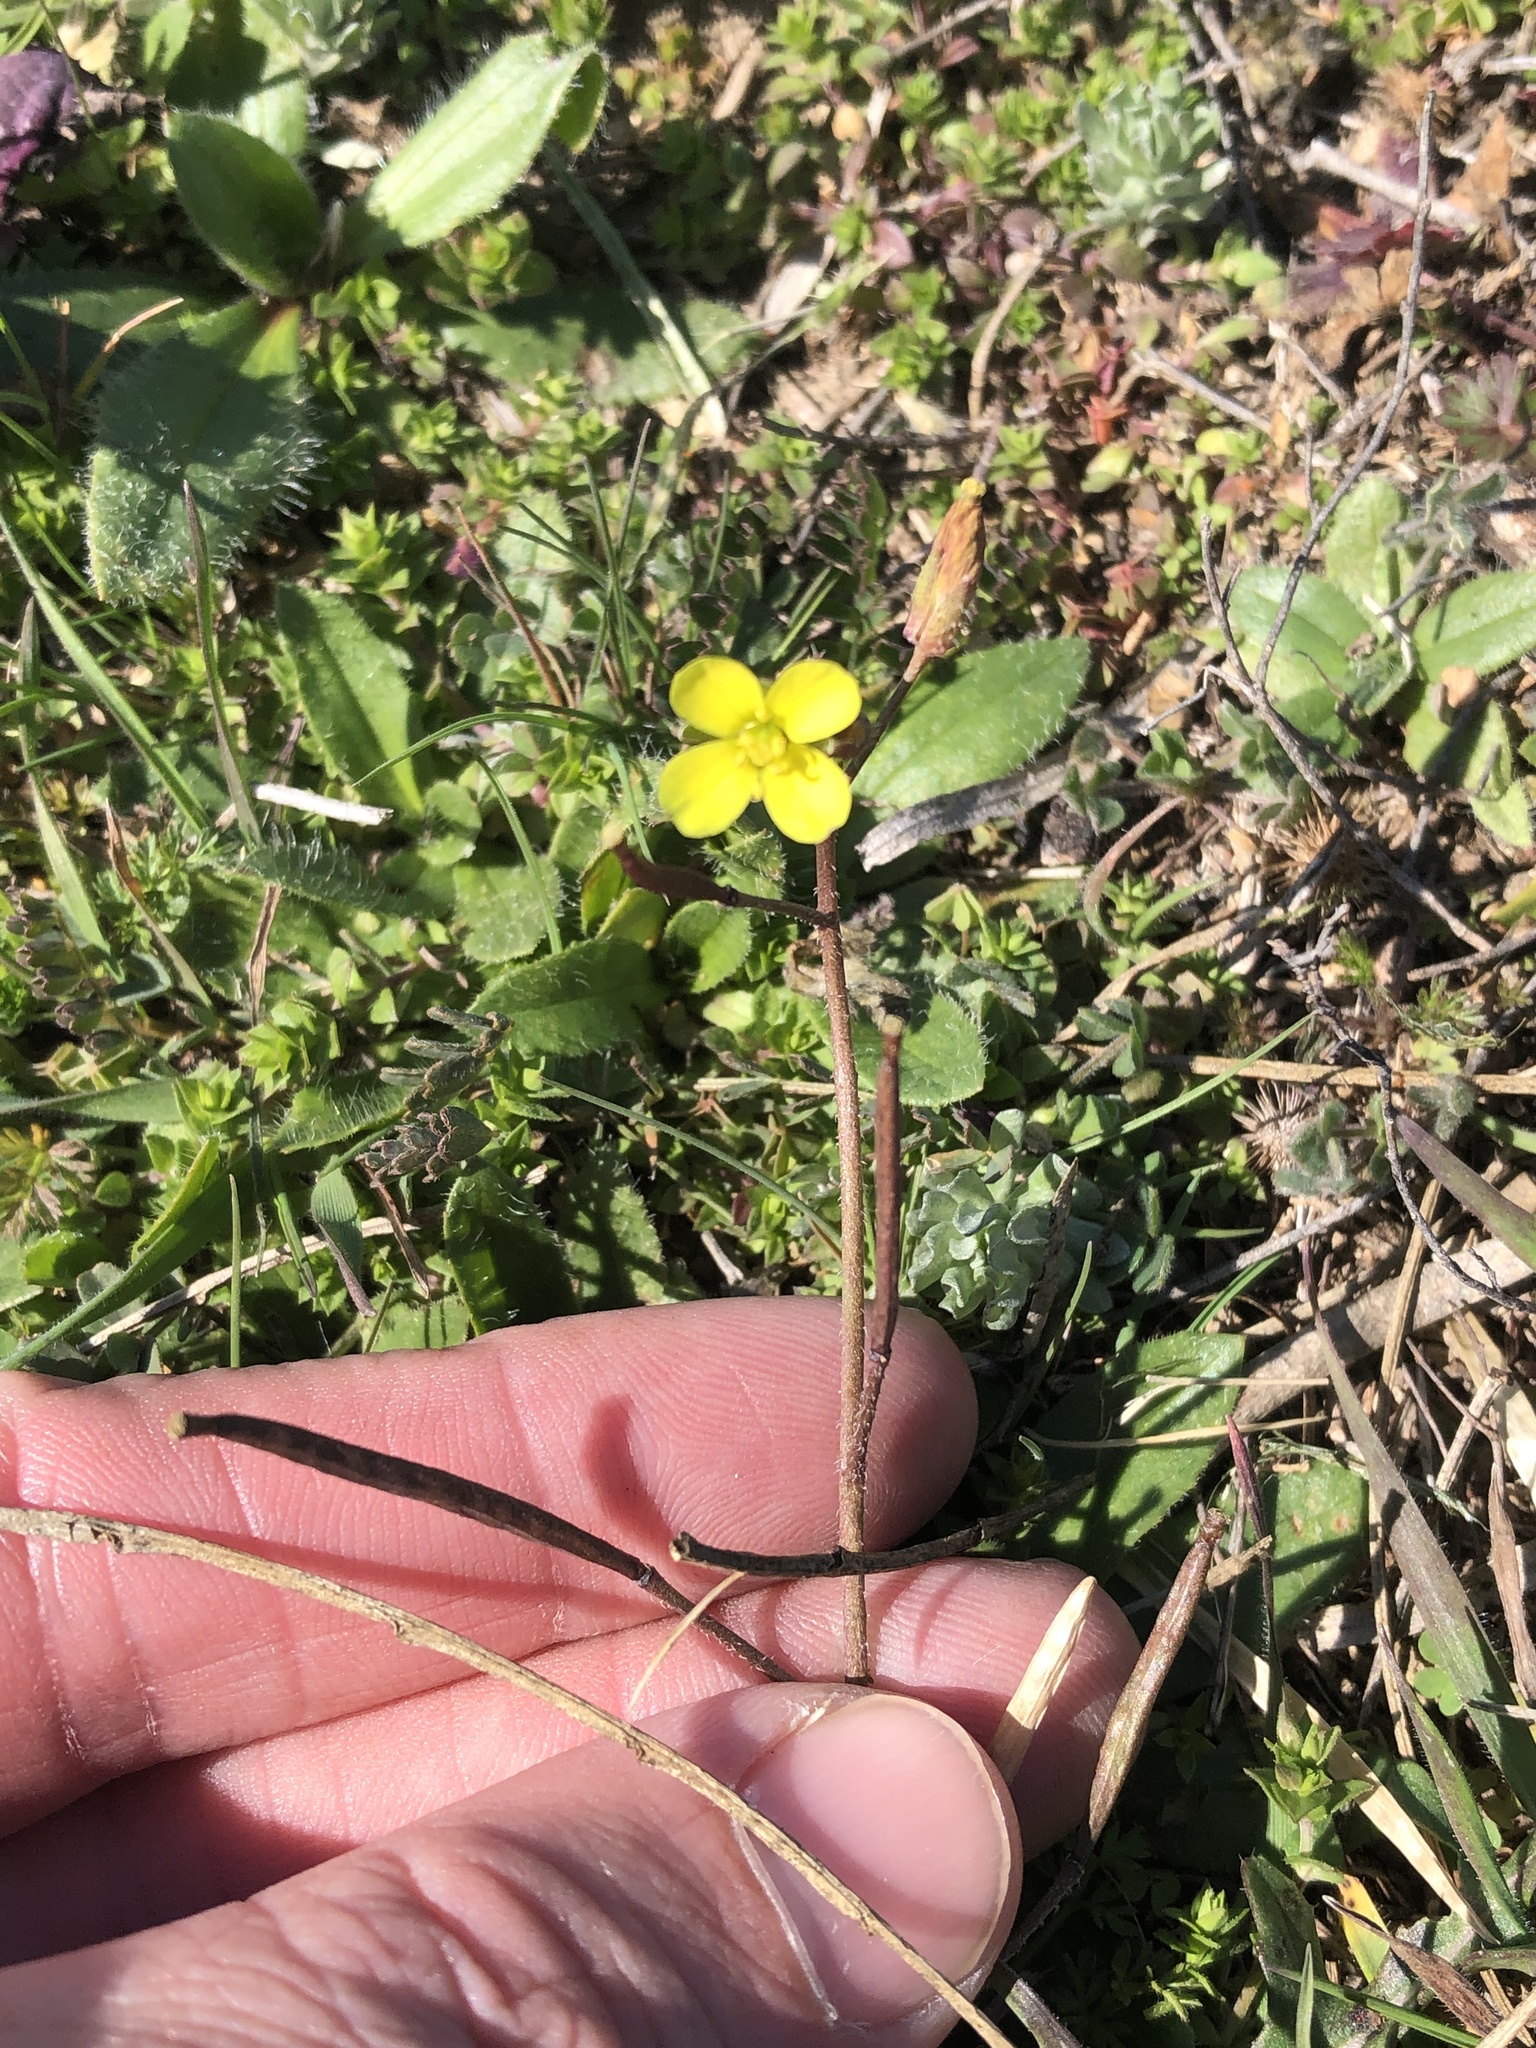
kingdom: Plantae
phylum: Tracheophyta
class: Magnoliopsida
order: Brassicales
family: Brassicaceae
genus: Diplotaxis
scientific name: Diplotaxis muralis
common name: Annual wall-rocket
